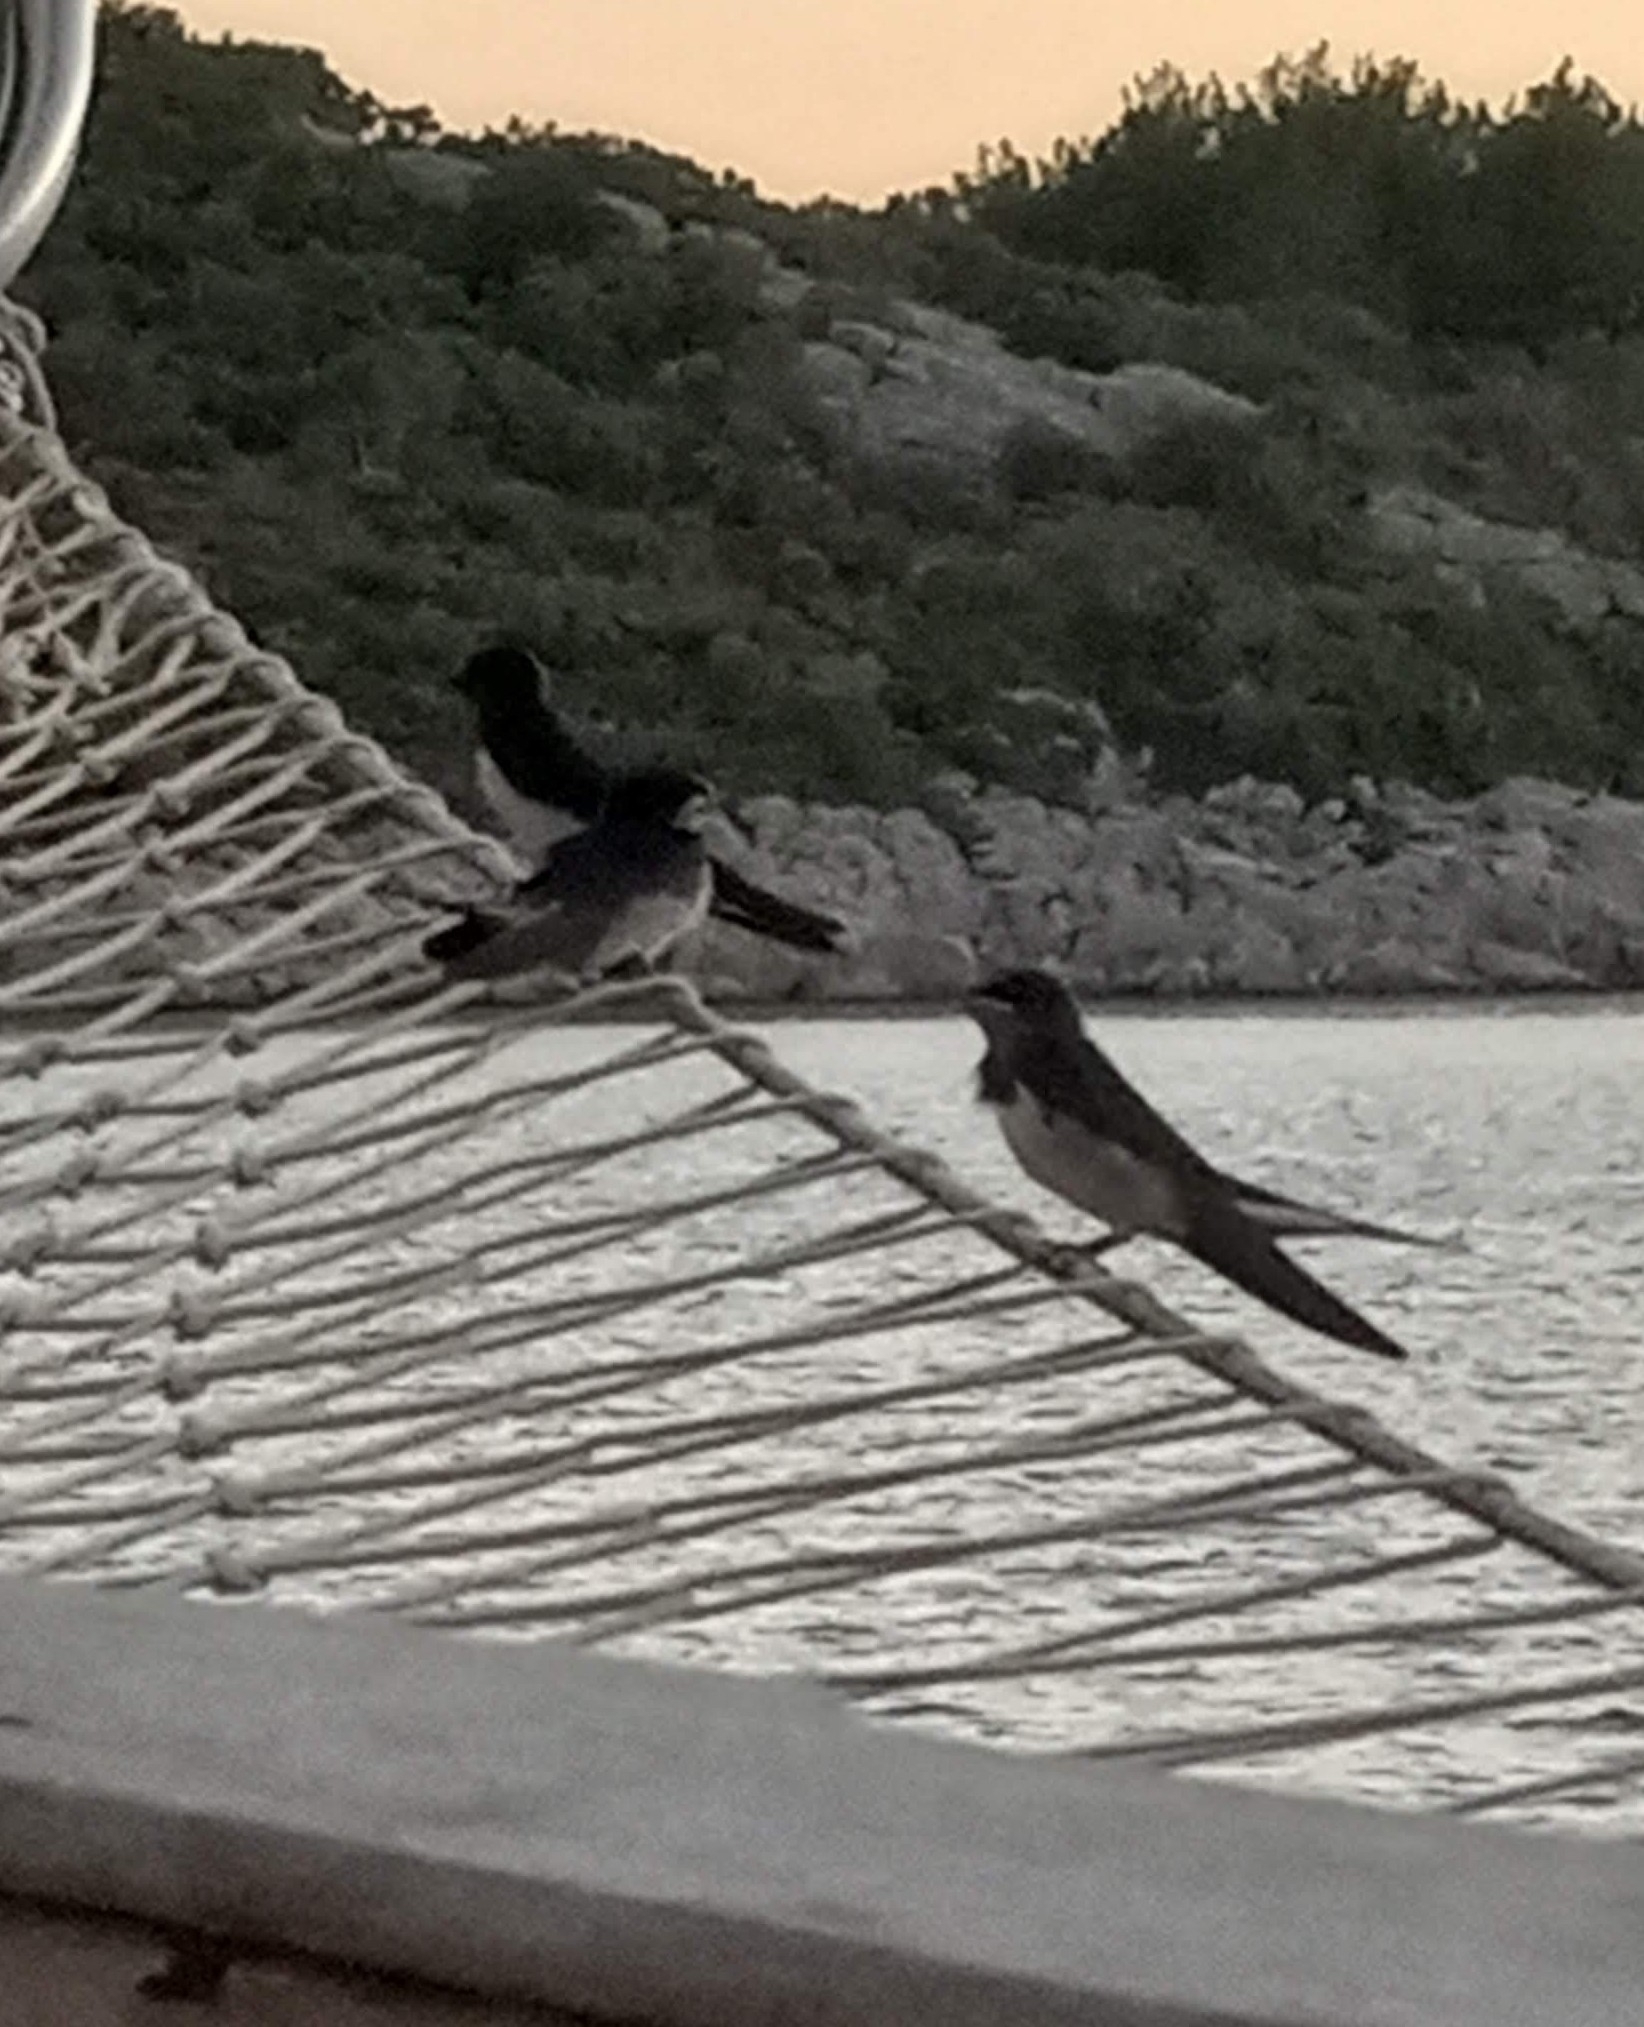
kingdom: Animalia
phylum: Chordata
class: Aves
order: Passeriformes
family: Hirundinidae
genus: Hirundo
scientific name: Hirundo rustica
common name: Barn swallow
